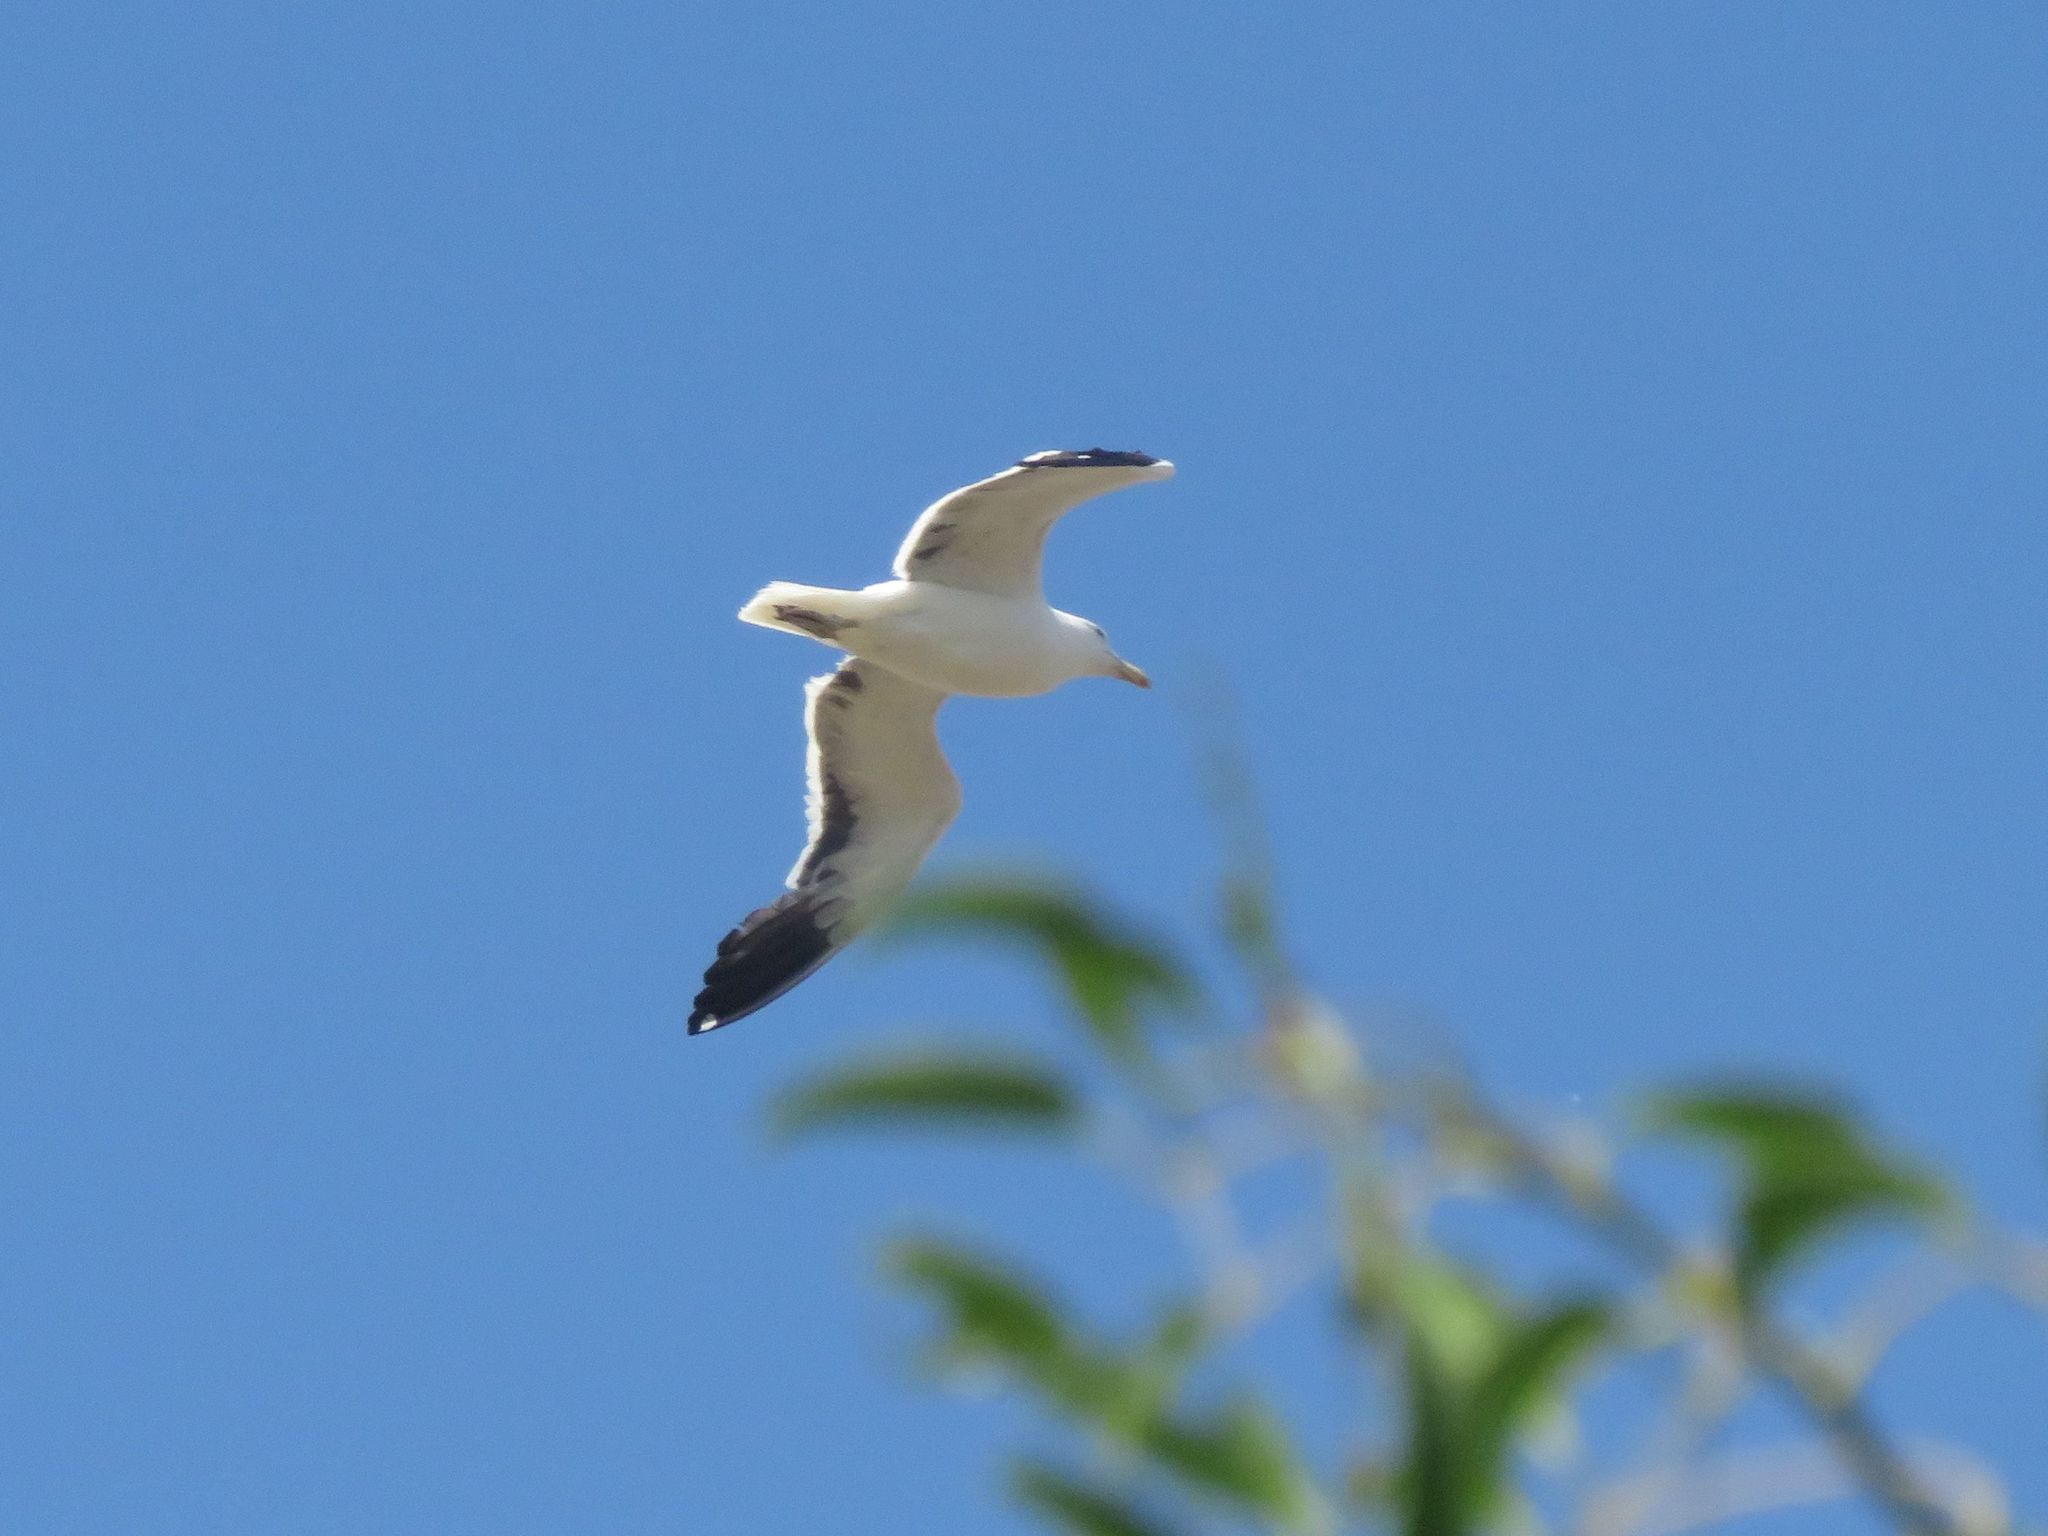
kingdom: Animalia
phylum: Chordata
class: Aves
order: Charadriiformes
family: Laridae
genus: Larus
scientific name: Larus dominicanus
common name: Kelp gull
